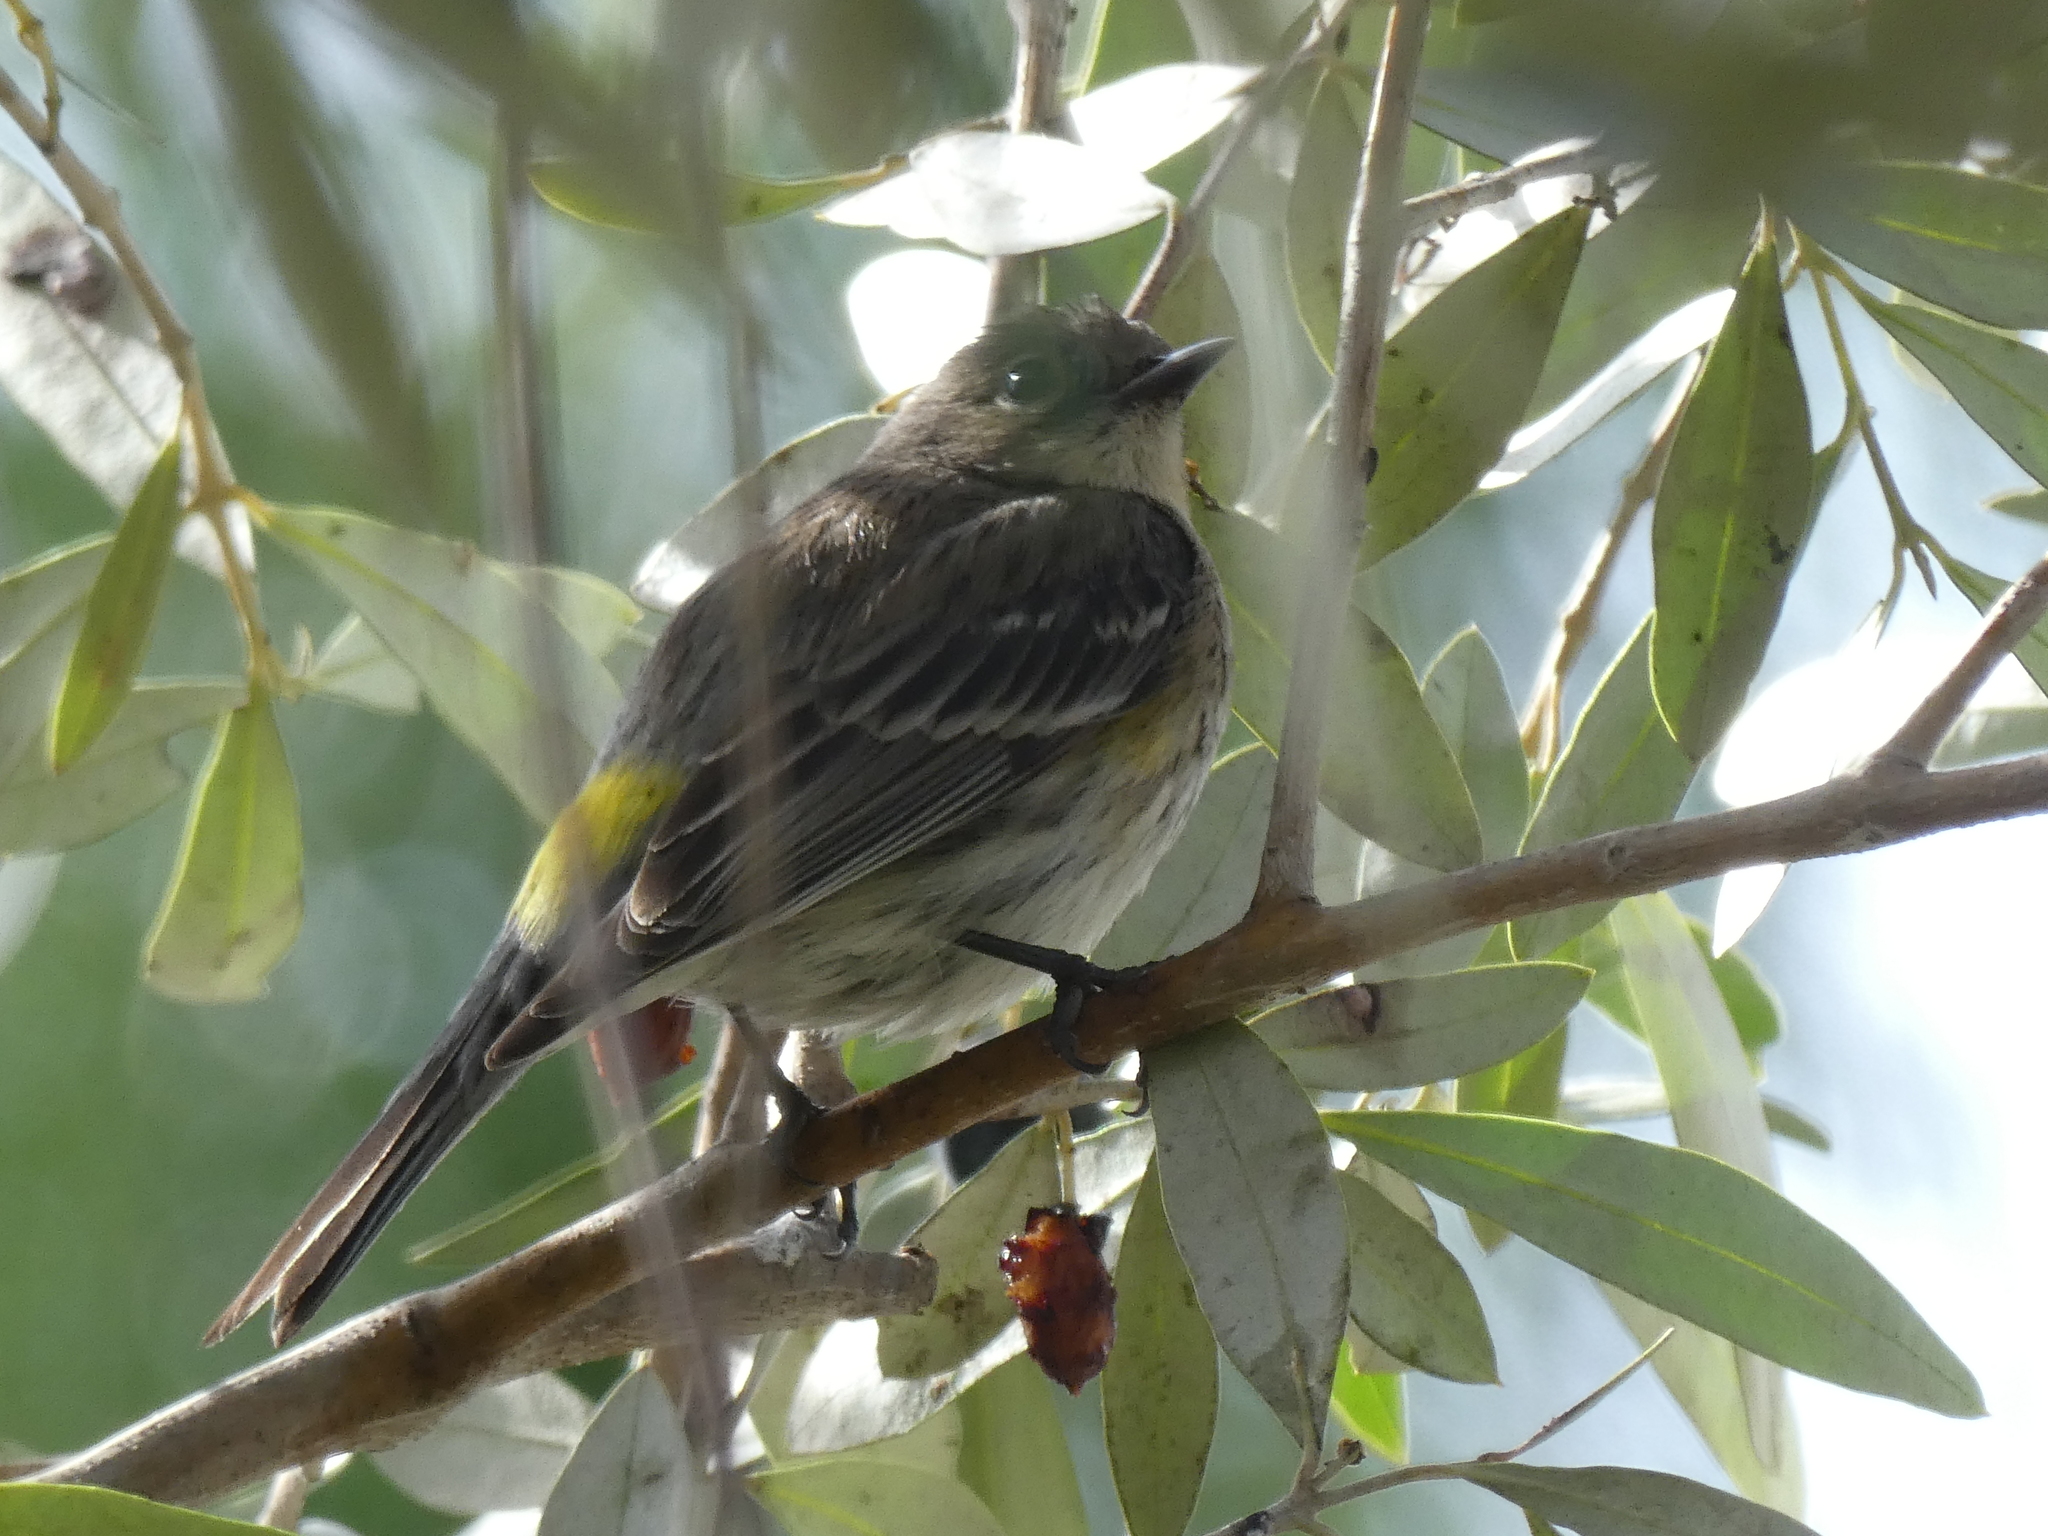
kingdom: Animalia
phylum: Chordata
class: Aves
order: Passeriformes
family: Parulidae
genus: Setophaga
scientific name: Setophaga coronata
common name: Myrtle warbler
